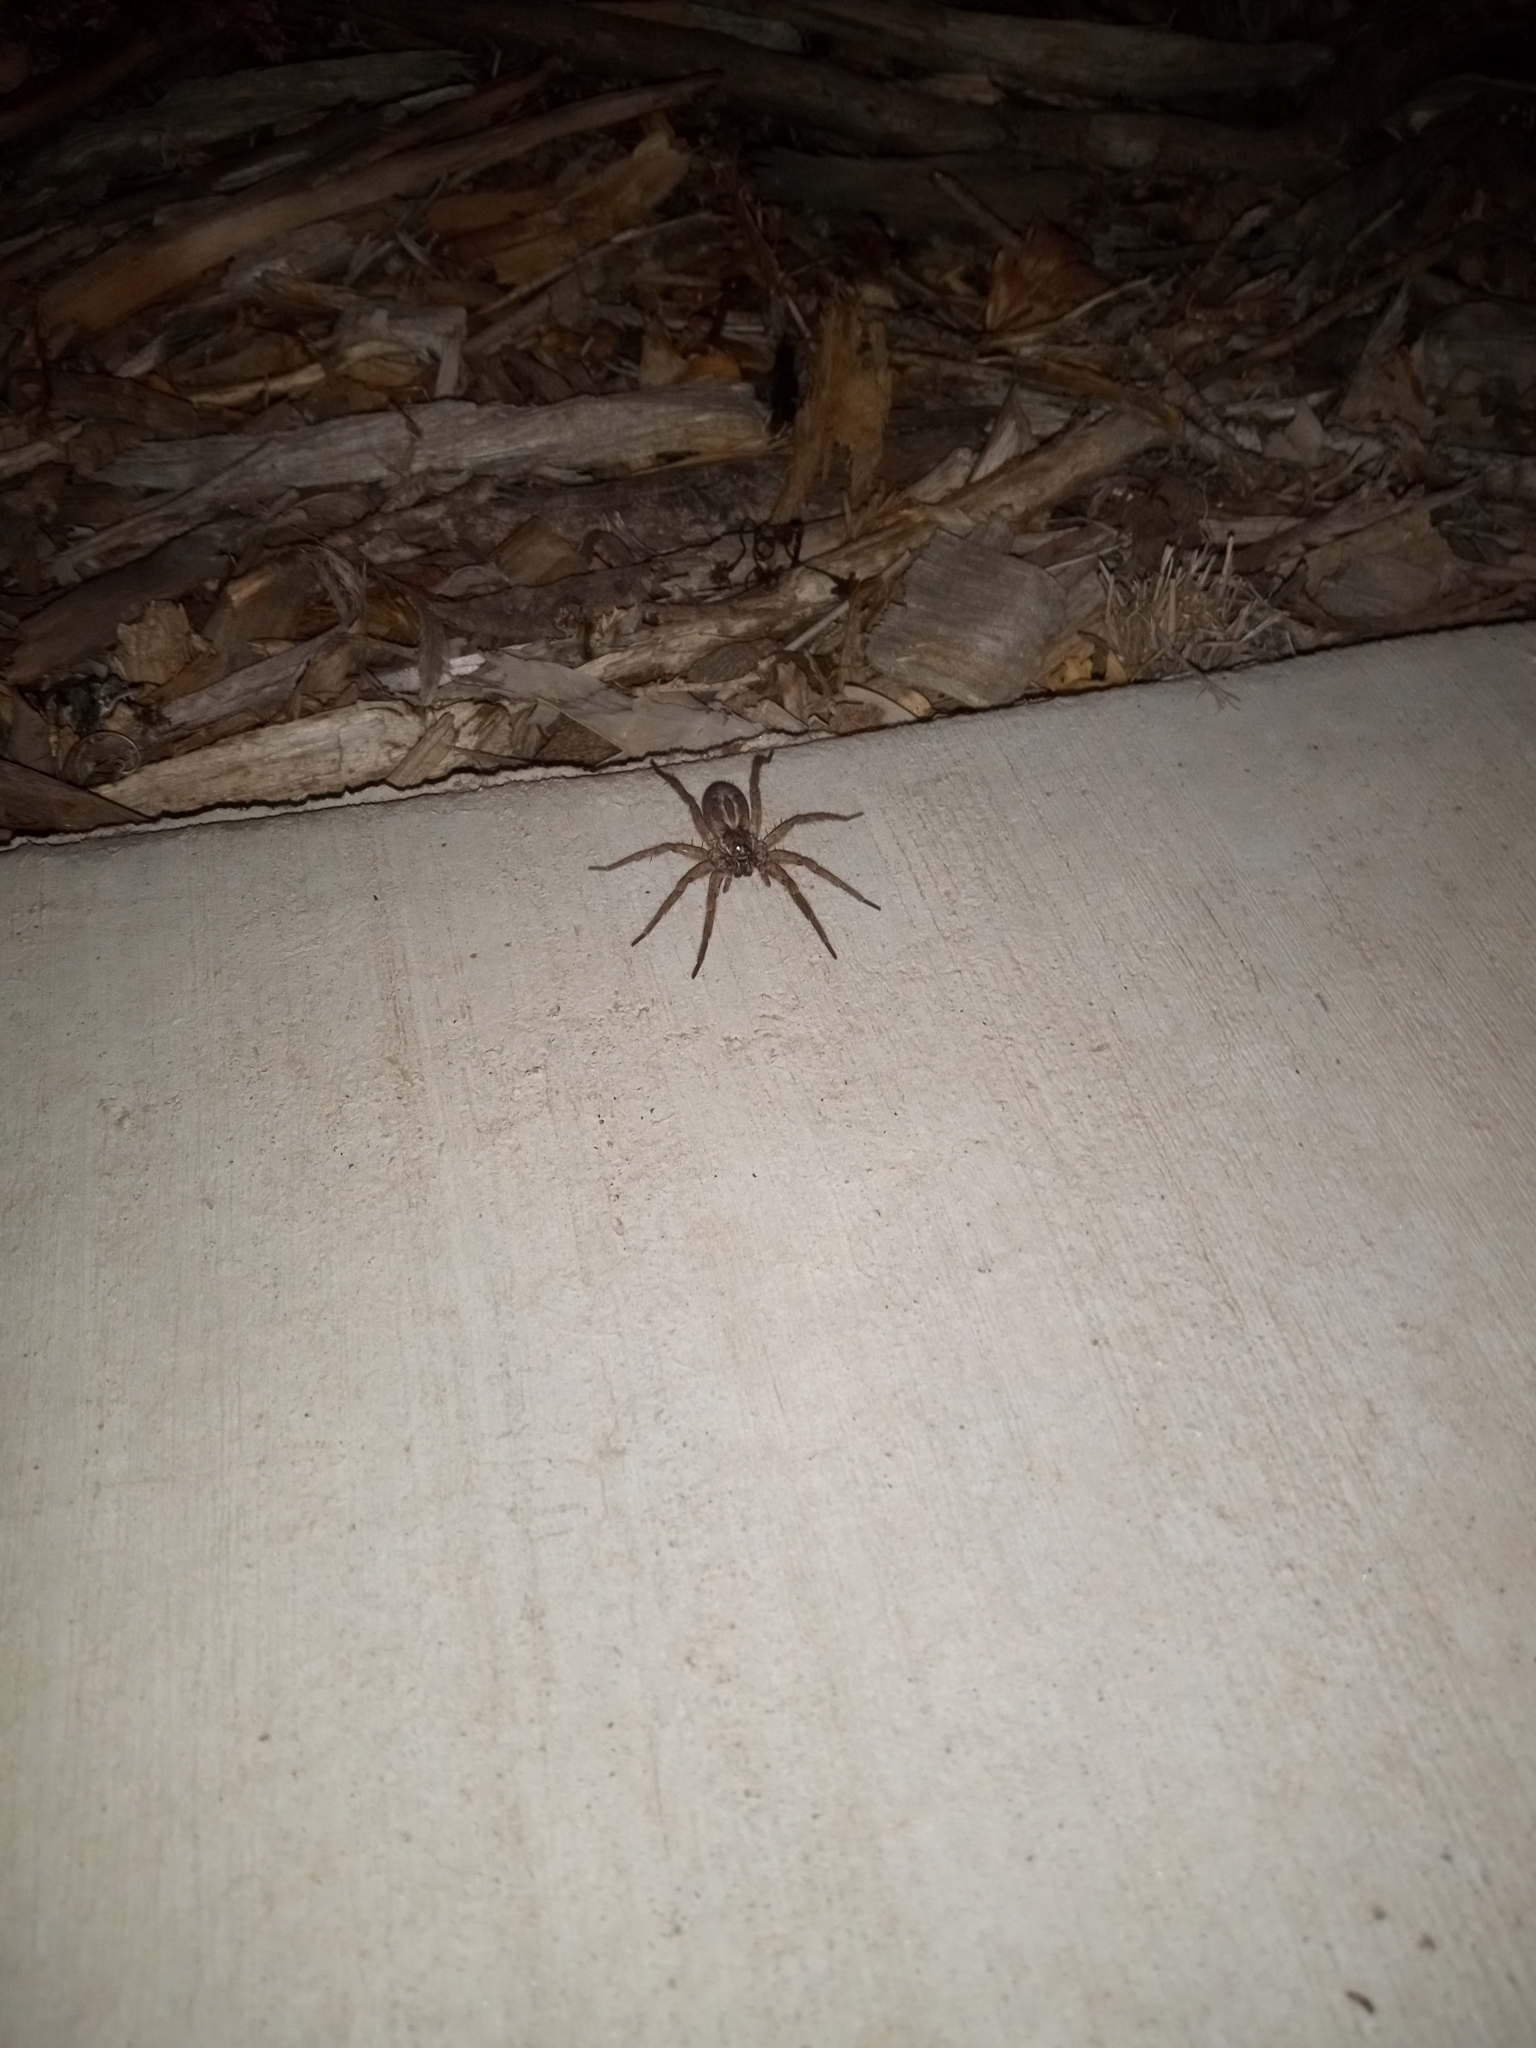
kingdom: Animalia
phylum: Arthropoda
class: Arachnida
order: Araneae
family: Lycosidae
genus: Schizocosa
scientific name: Schizocosa mccooki
